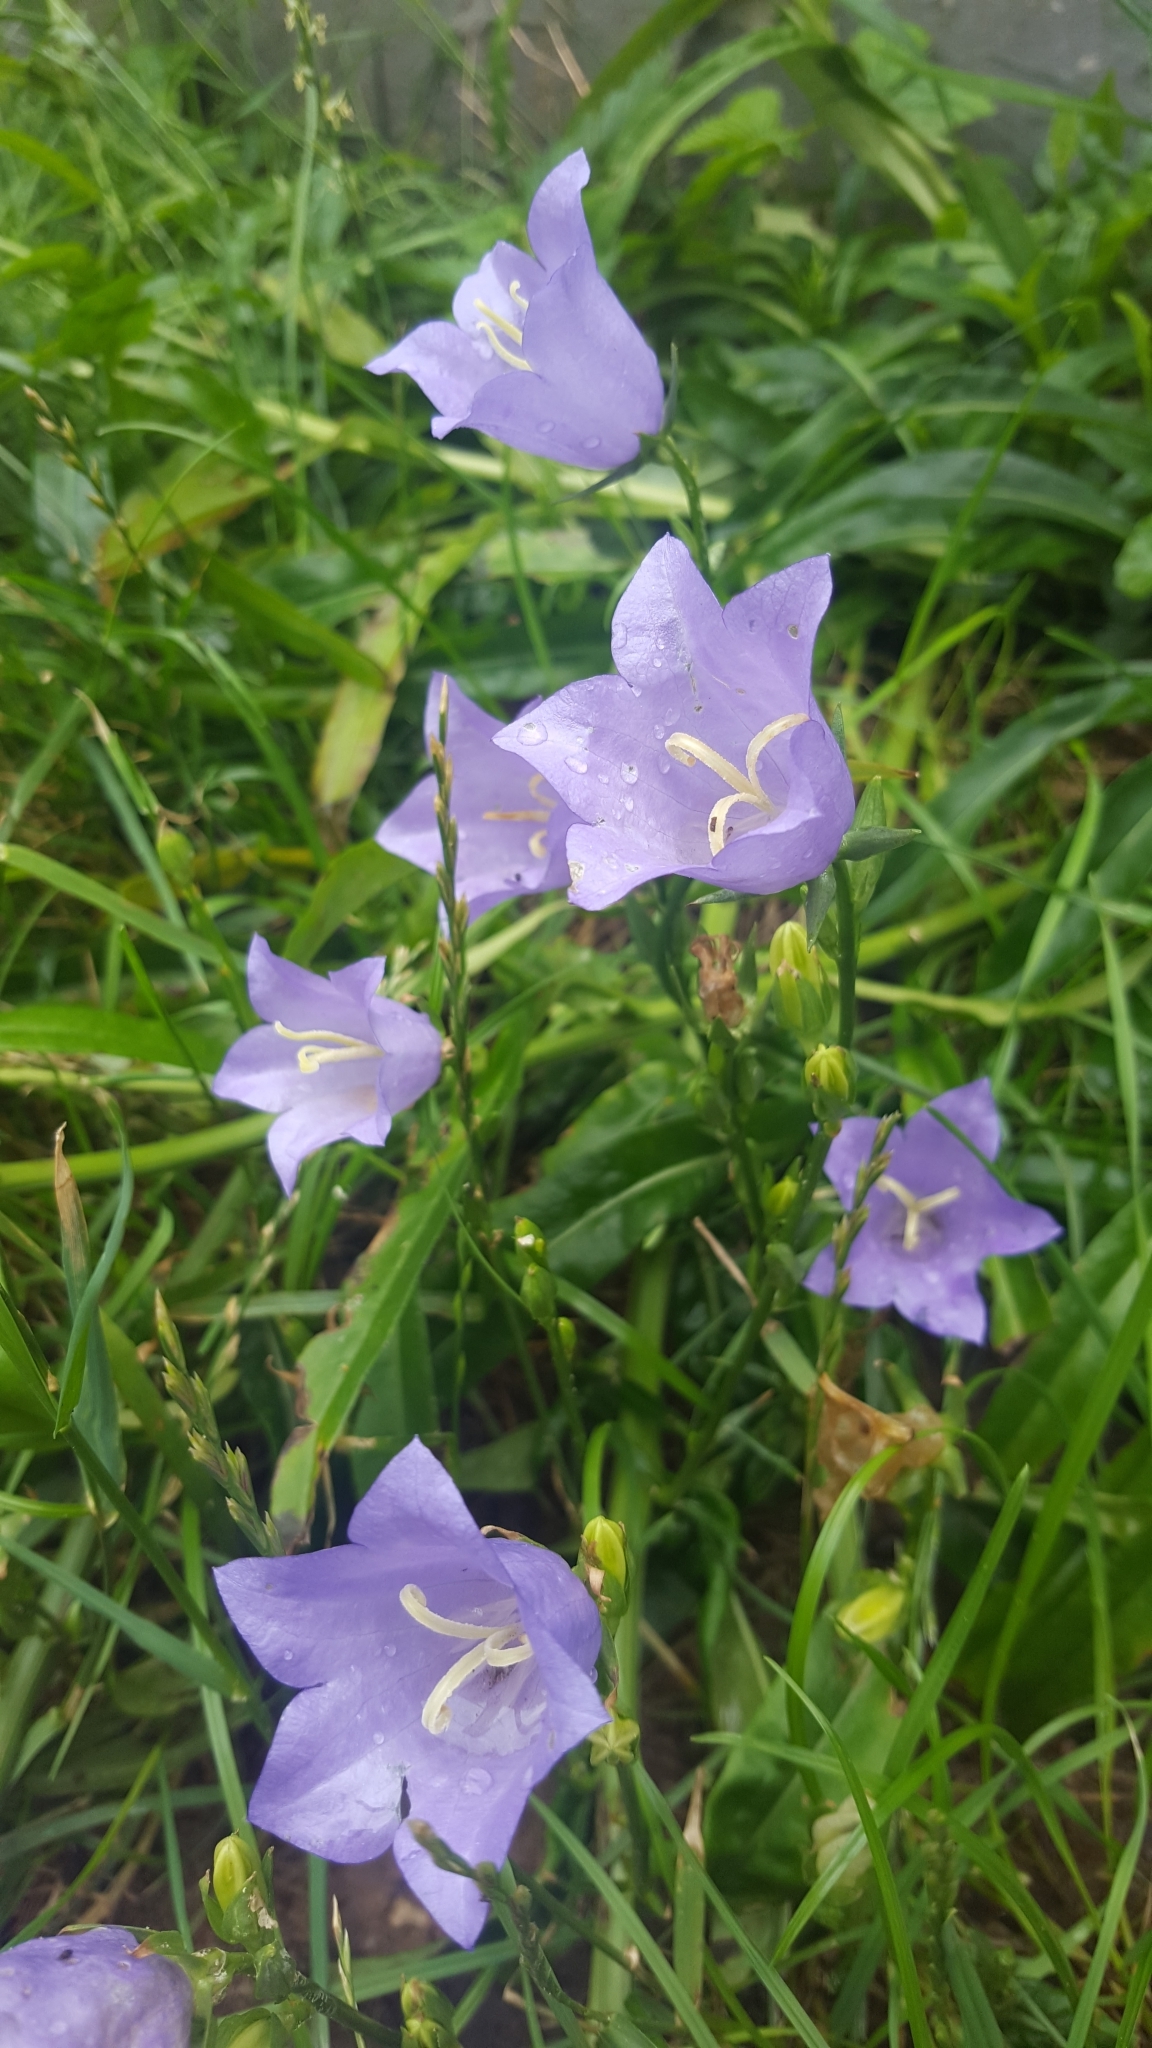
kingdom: Plantae
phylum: Tracheophyta
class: Magnoliopsida
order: Asterales
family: Campanulaceae
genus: Campanula
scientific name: Campanula persicifolia
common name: Peach-leaved bellflower
